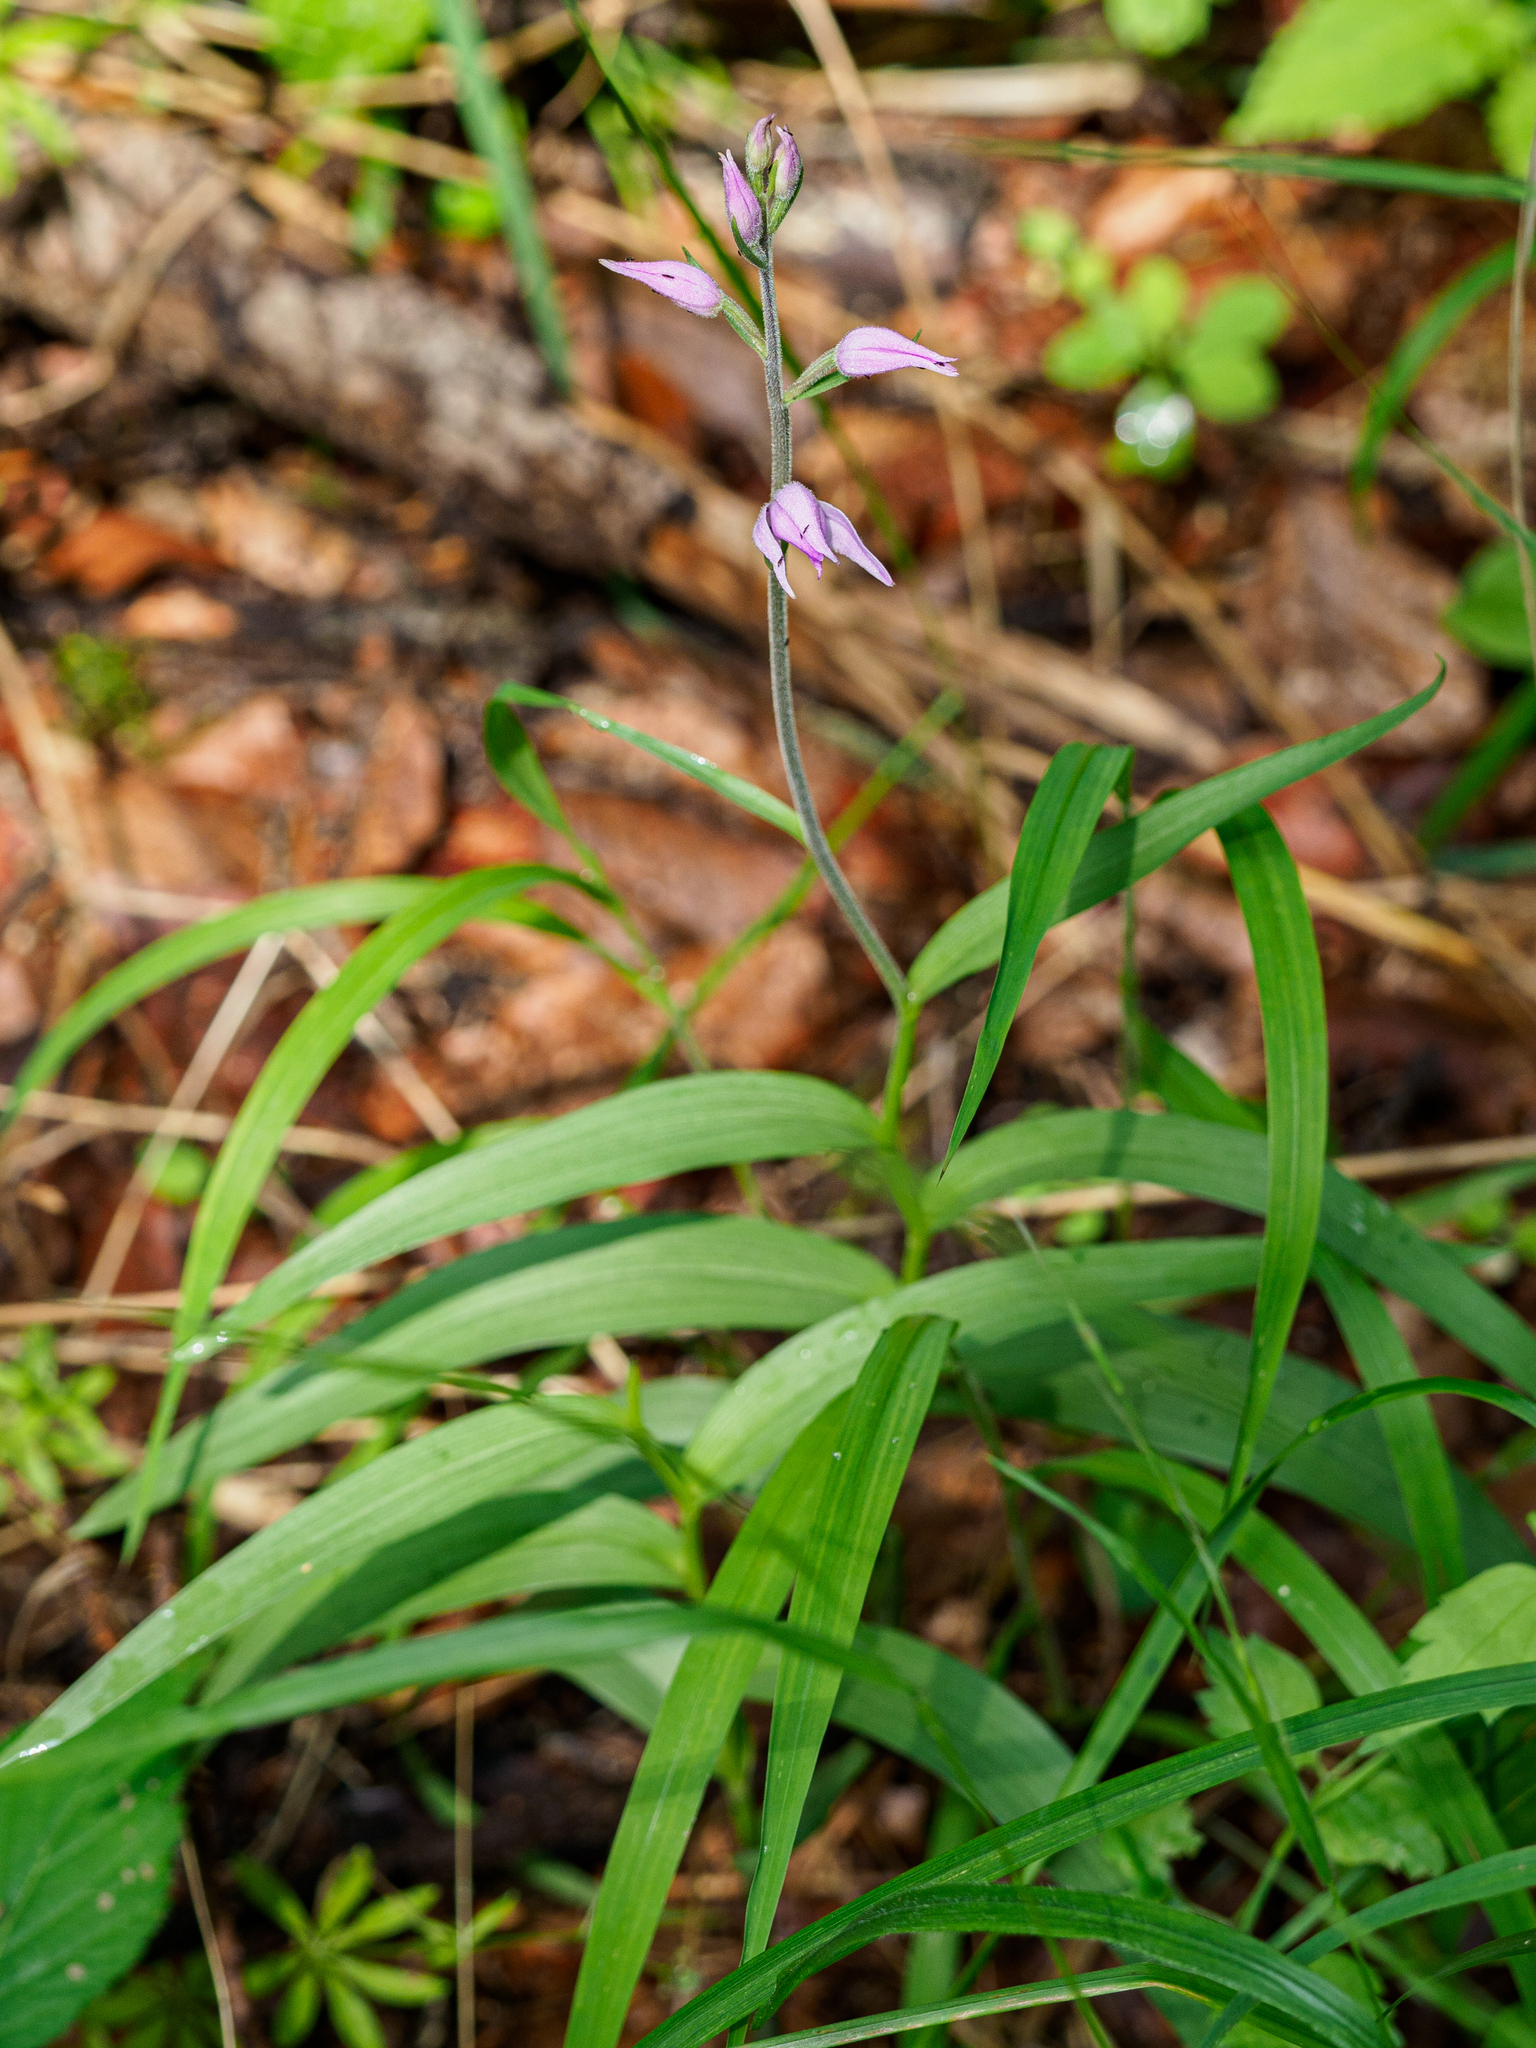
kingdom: Plantae
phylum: Tracheophyta
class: Liliopsida
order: Asparagales
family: Orchidaceae
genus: Cephalanthera
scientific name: Cephalanthera rubra
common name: Red helleborine
